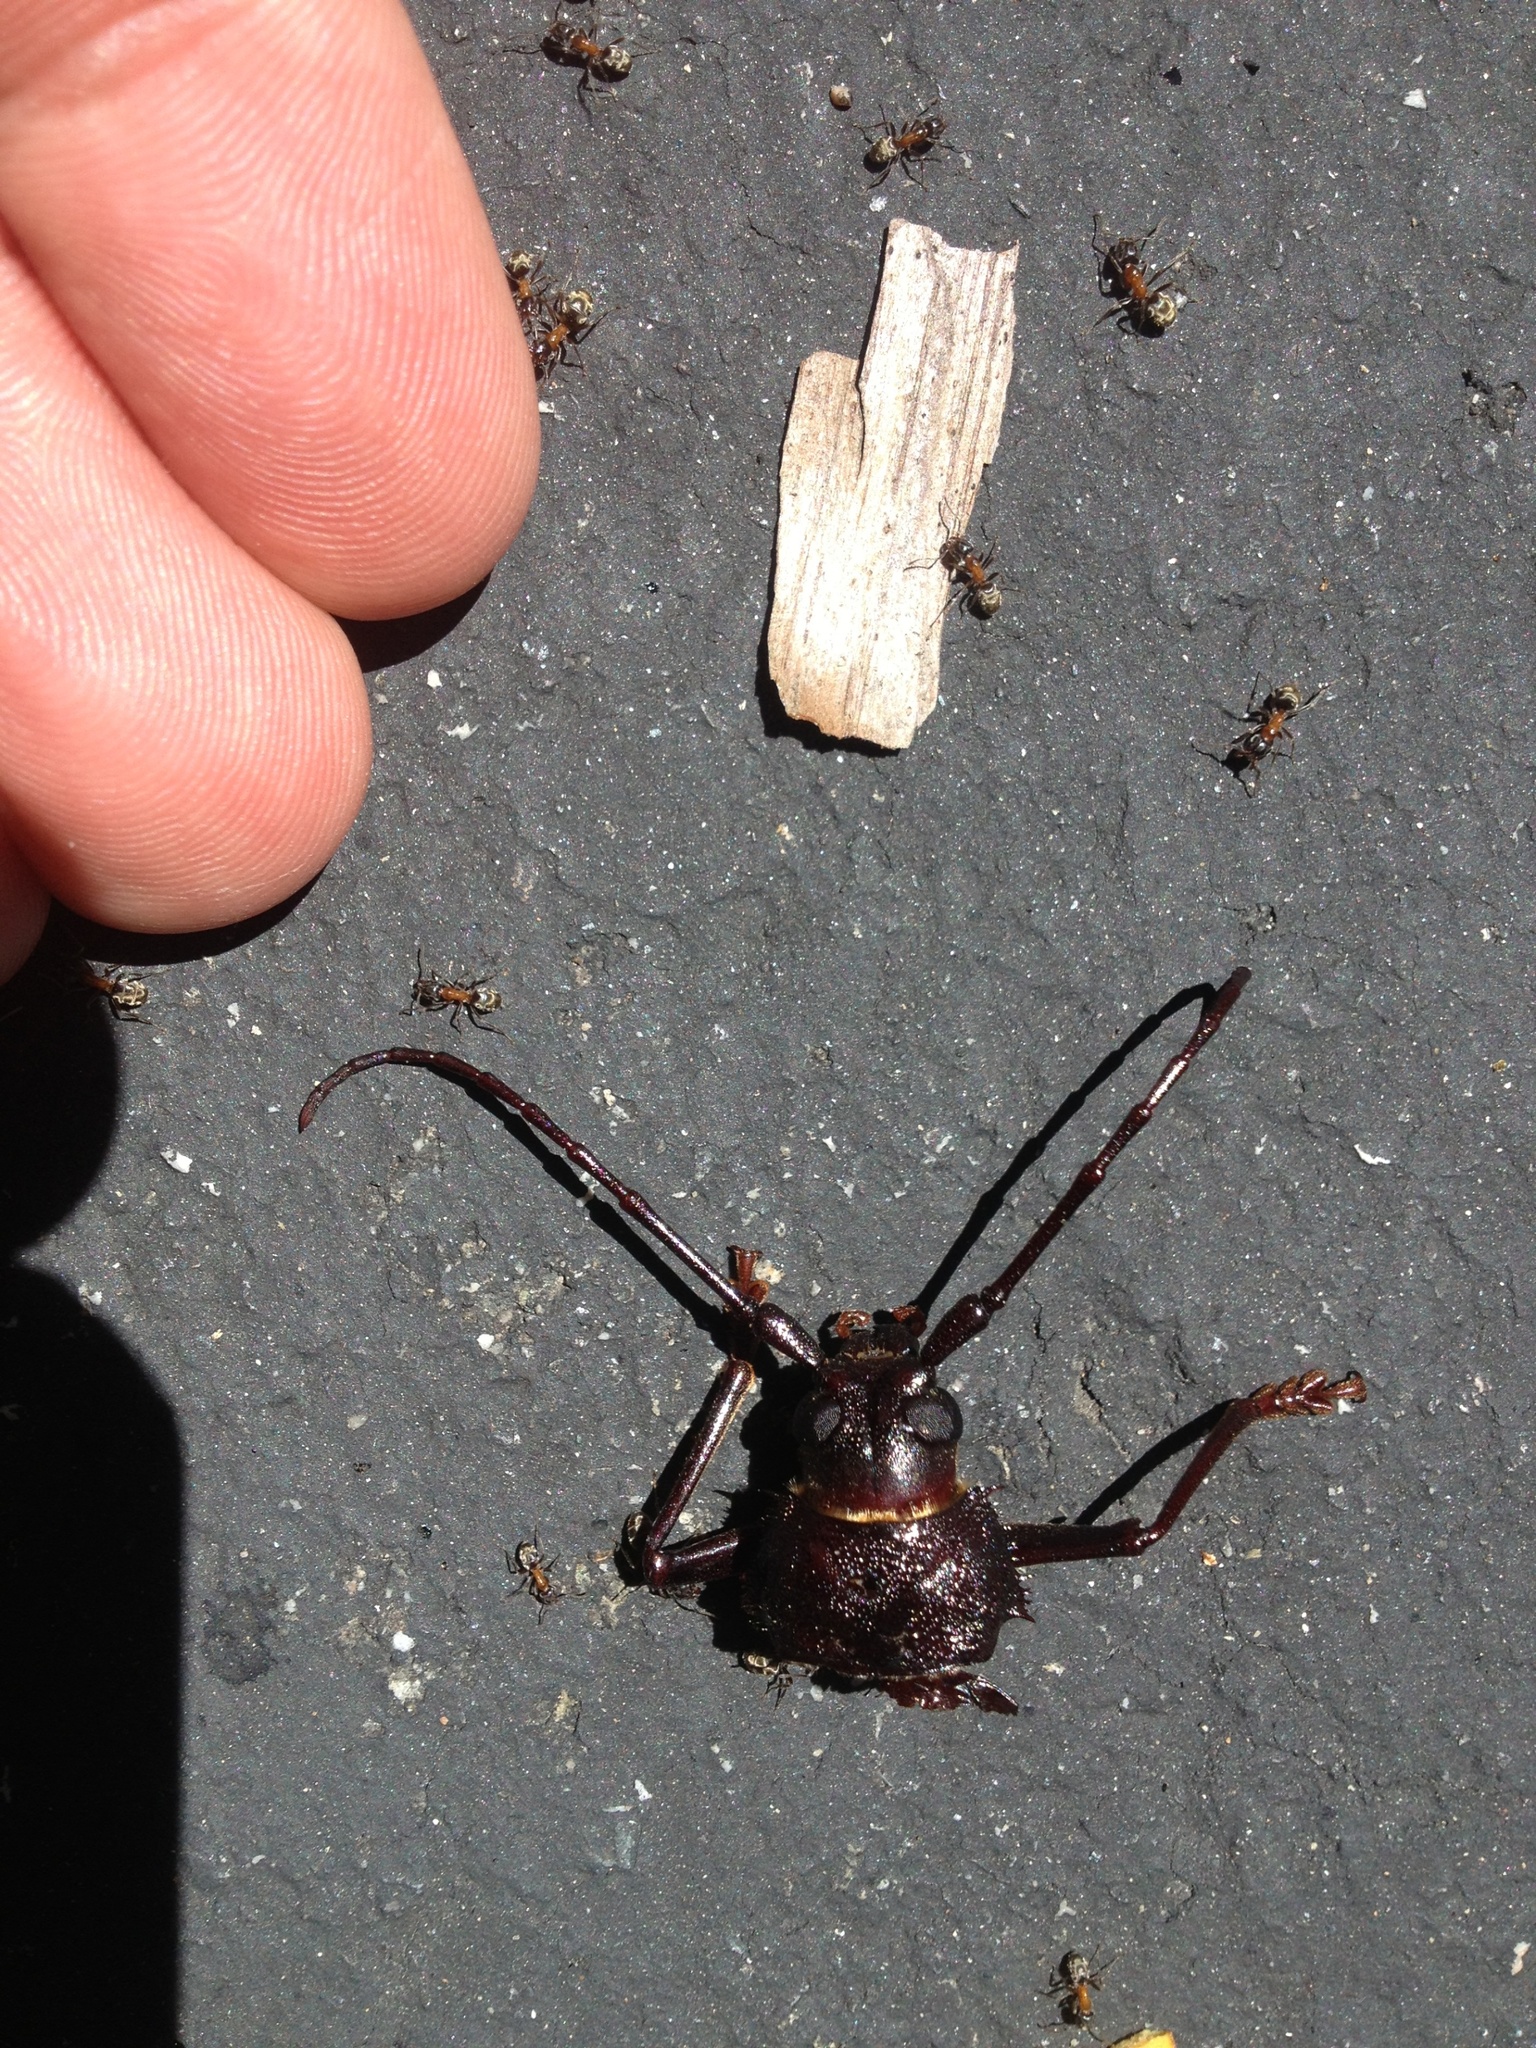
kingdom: Animalia
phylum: Arthropoda
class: Insecta
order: Coleoptera
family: Cerambycidae
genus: Trichocnemis
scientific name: Trichocnemis spiculatus
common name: Long-horned beetle
